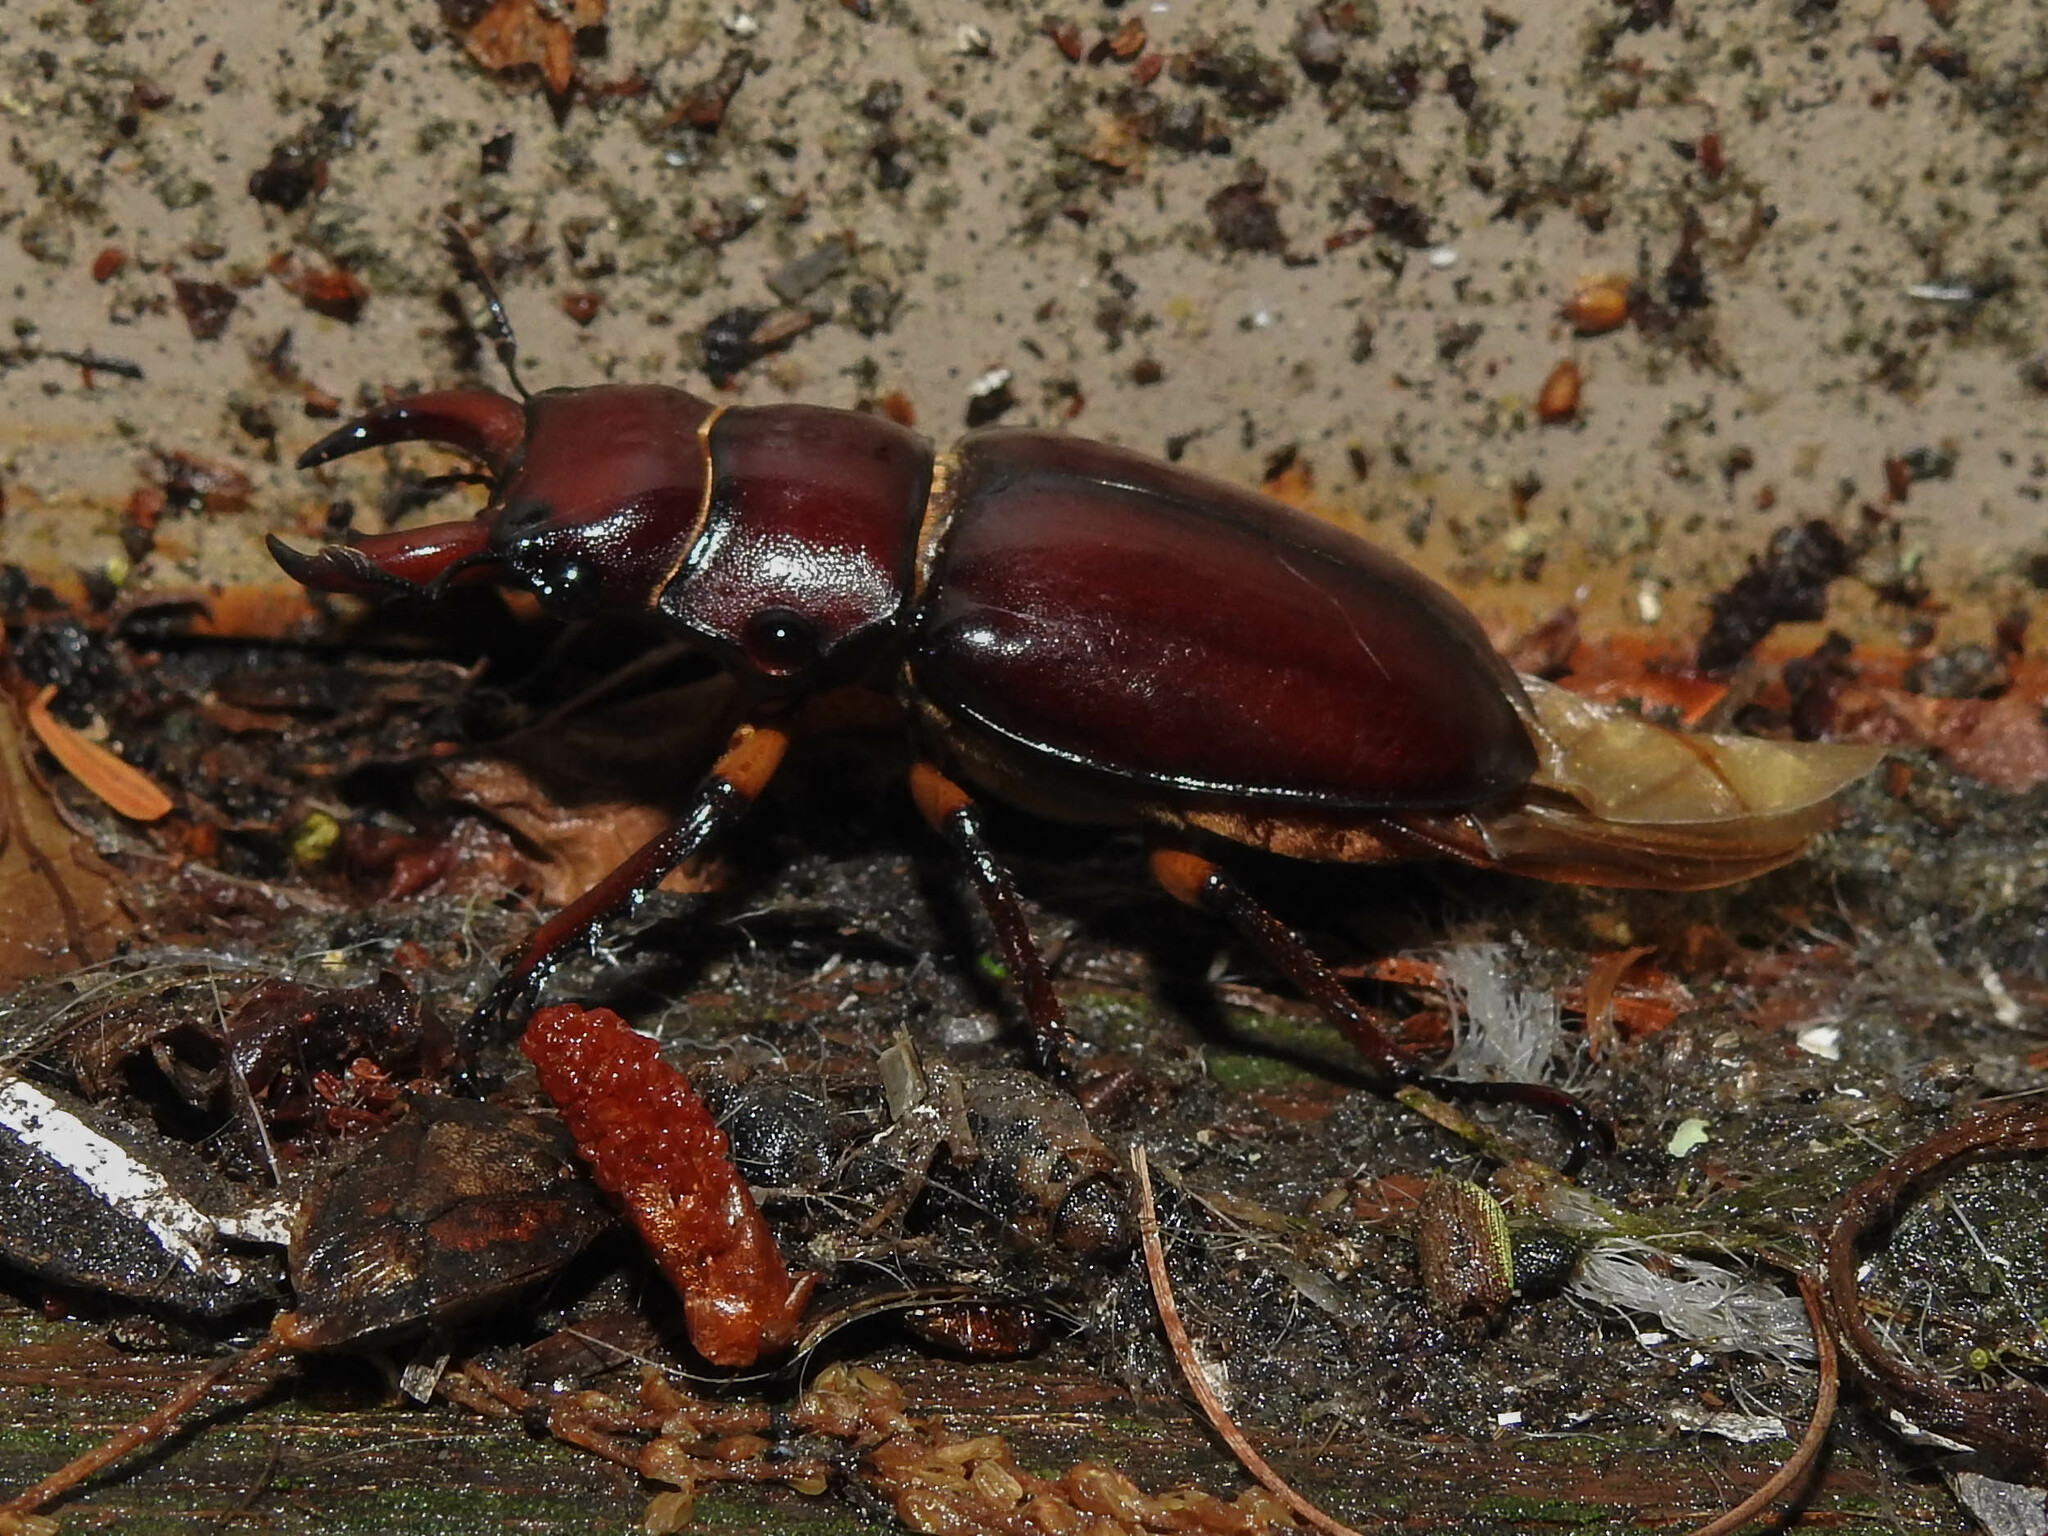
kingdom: Animalia
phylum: Arthropoda
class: Insecta
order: Coleoptera
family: Lucanidae
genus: Lucanus
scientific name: Lucanus capreolus
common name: Stag beetle
